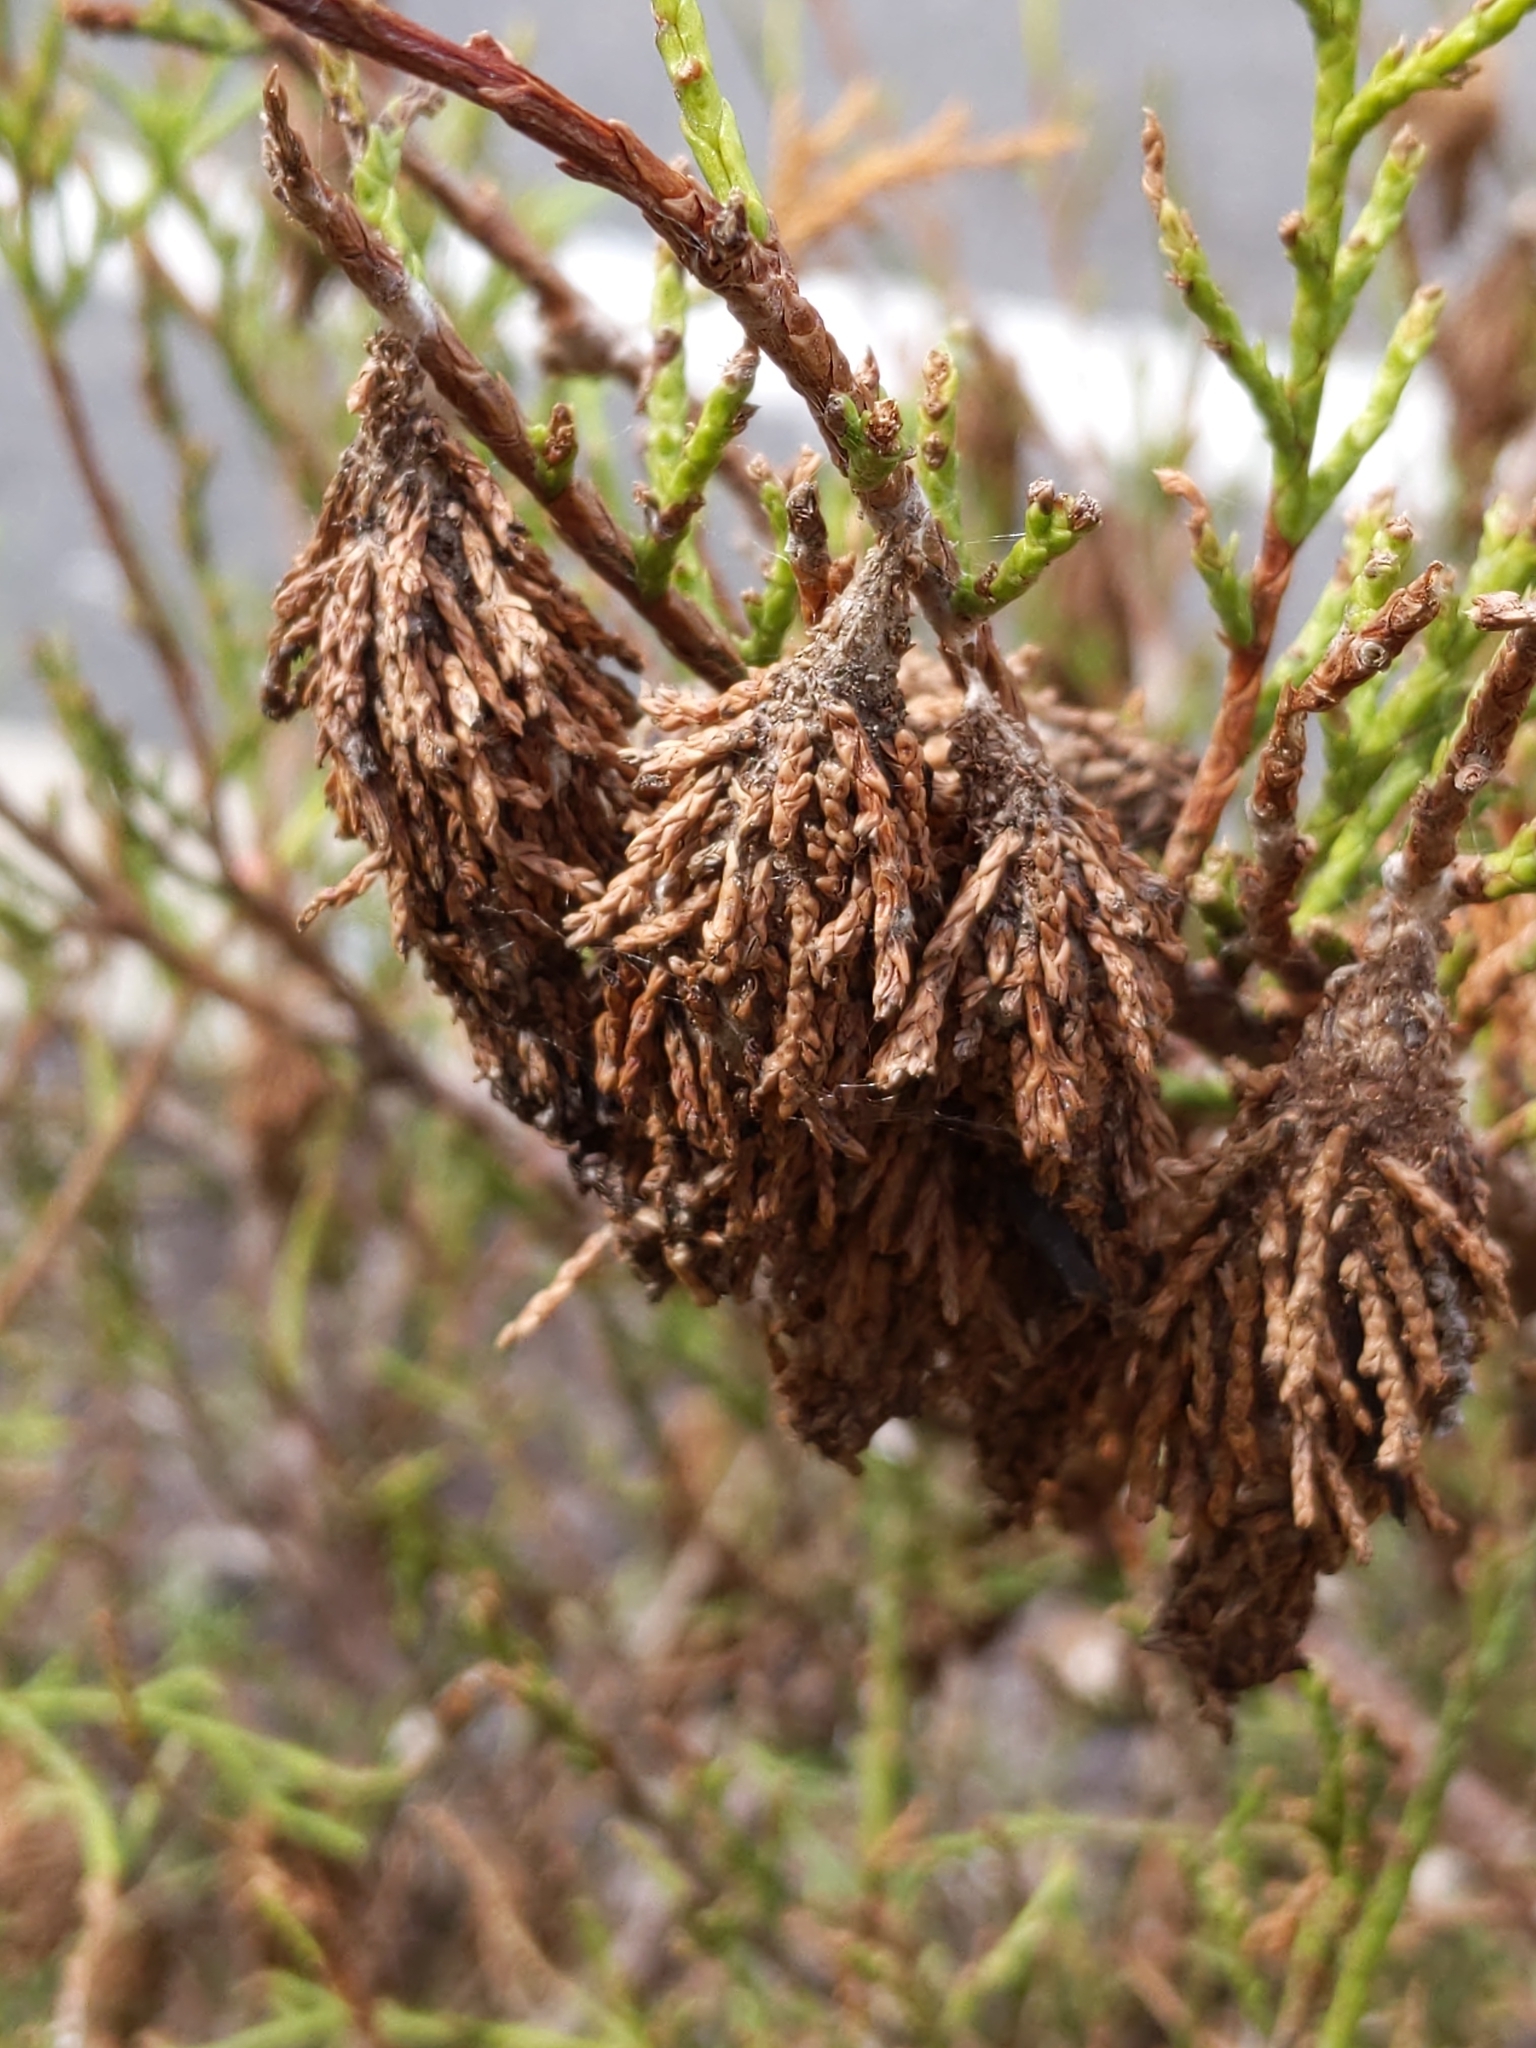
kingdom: Animalia
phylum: Arthropoda
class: Insecta
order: Lepidoptera
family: Psychidae
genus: Thyridopteryx
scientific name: Thyridopteryx ephemeraeformis
